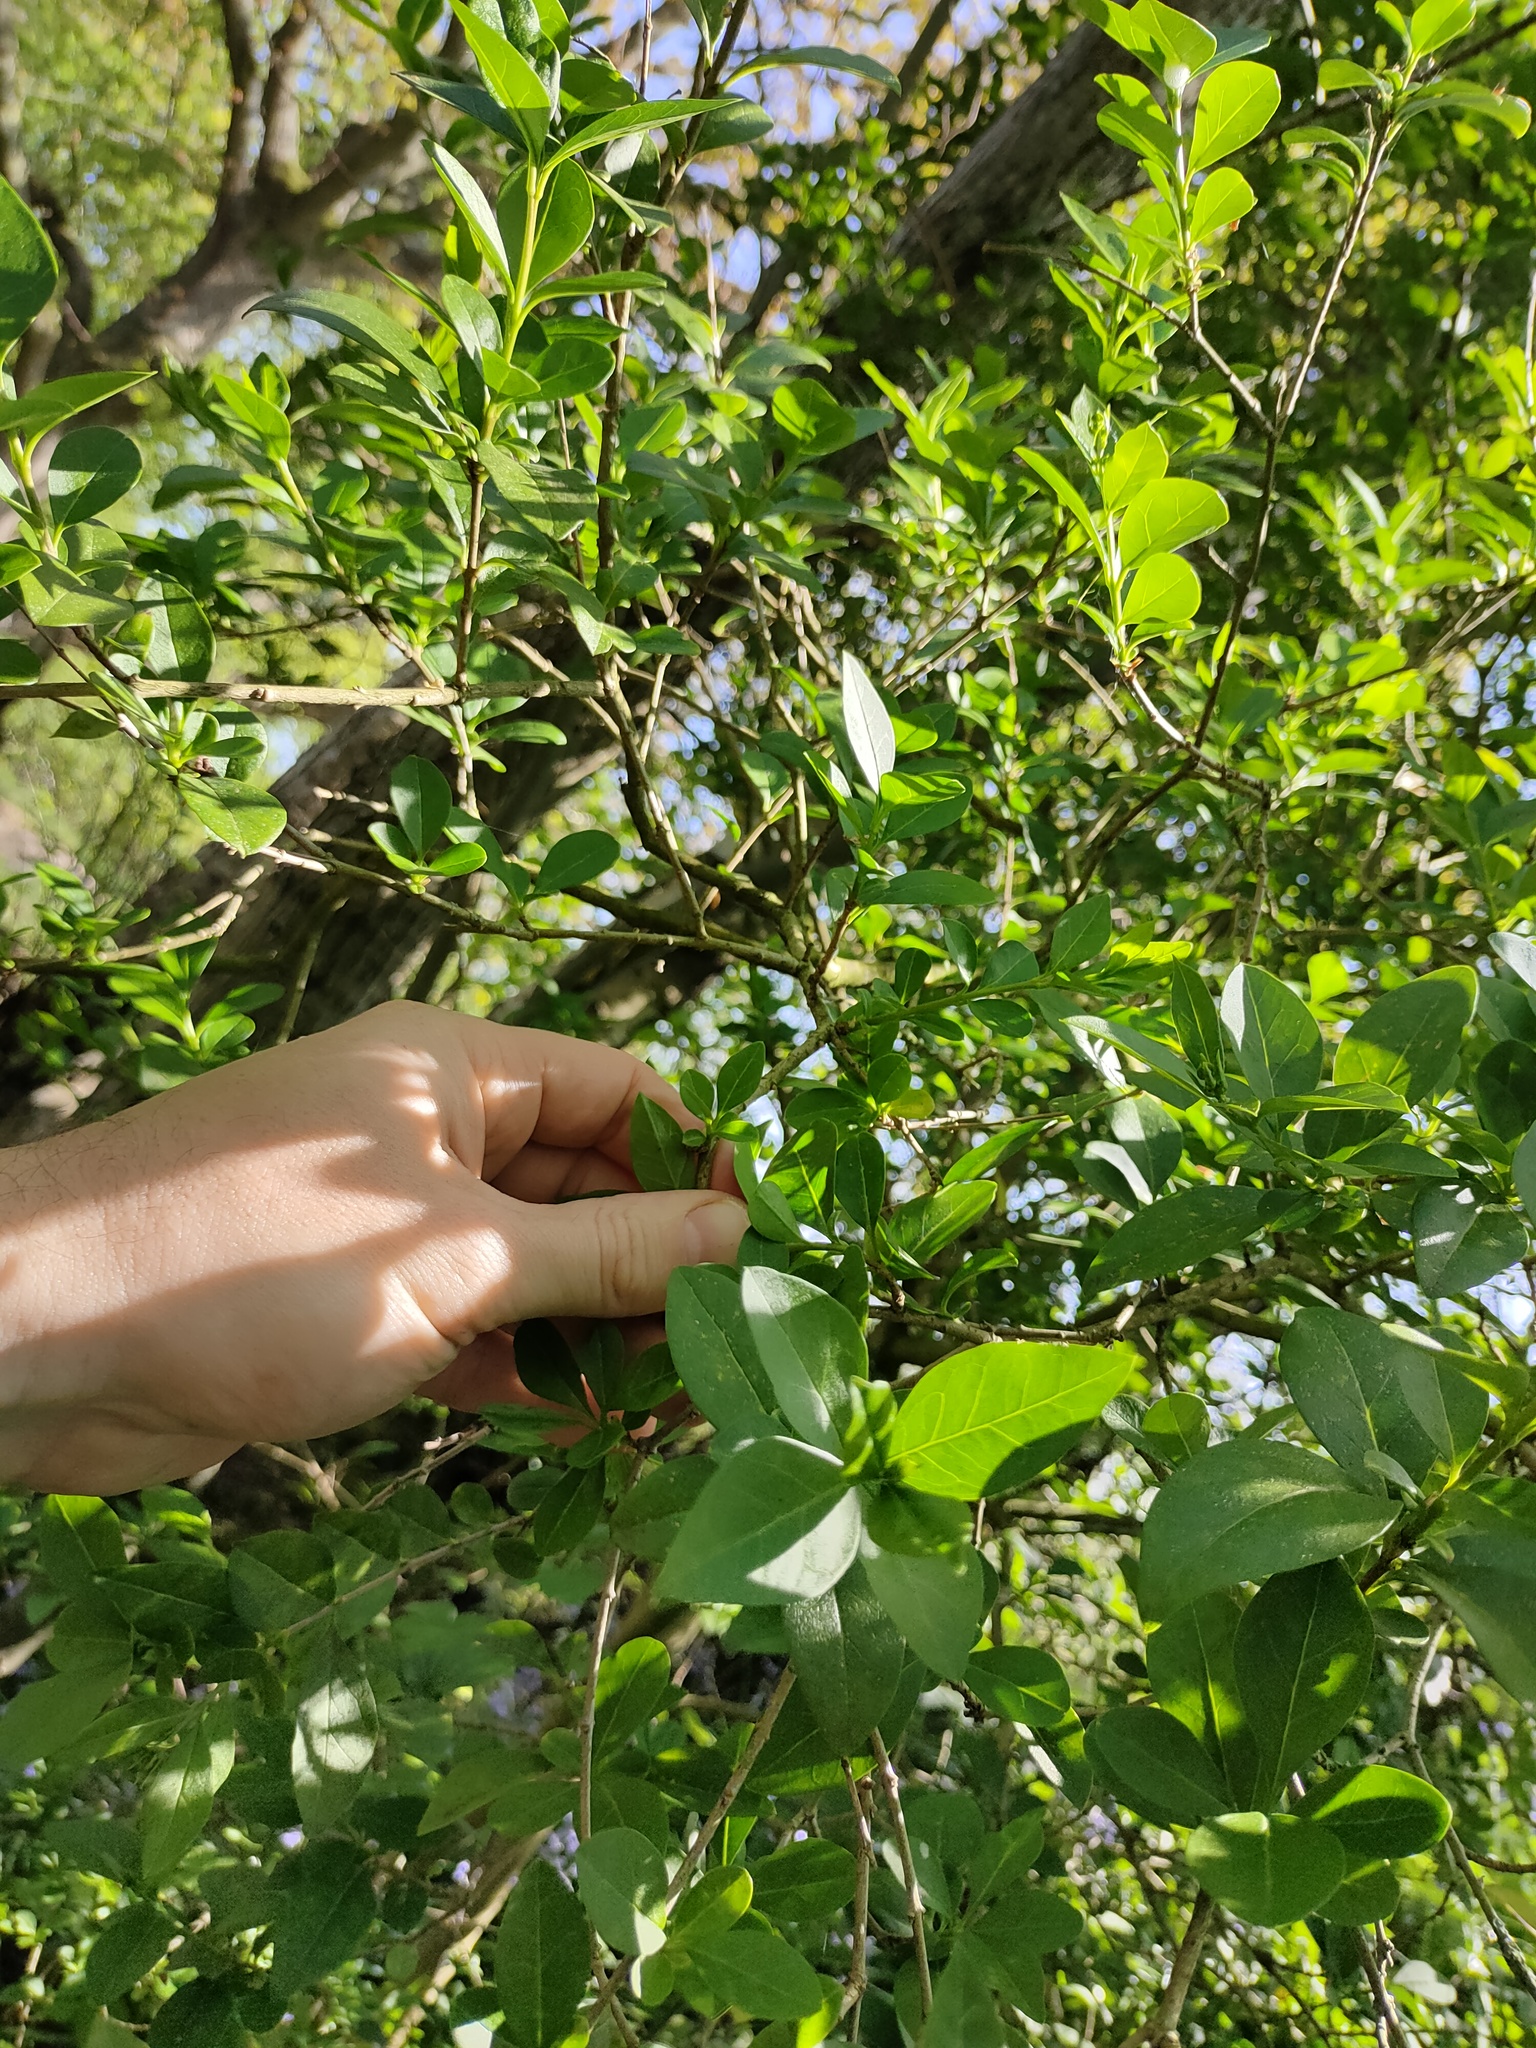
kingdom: Plantae
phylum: Tracheophyta
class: Magnoliopsida
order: Lamiales
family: Oleaceae
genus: Ligustrum
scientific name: Ligustrum ovalifolium
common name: California privet
